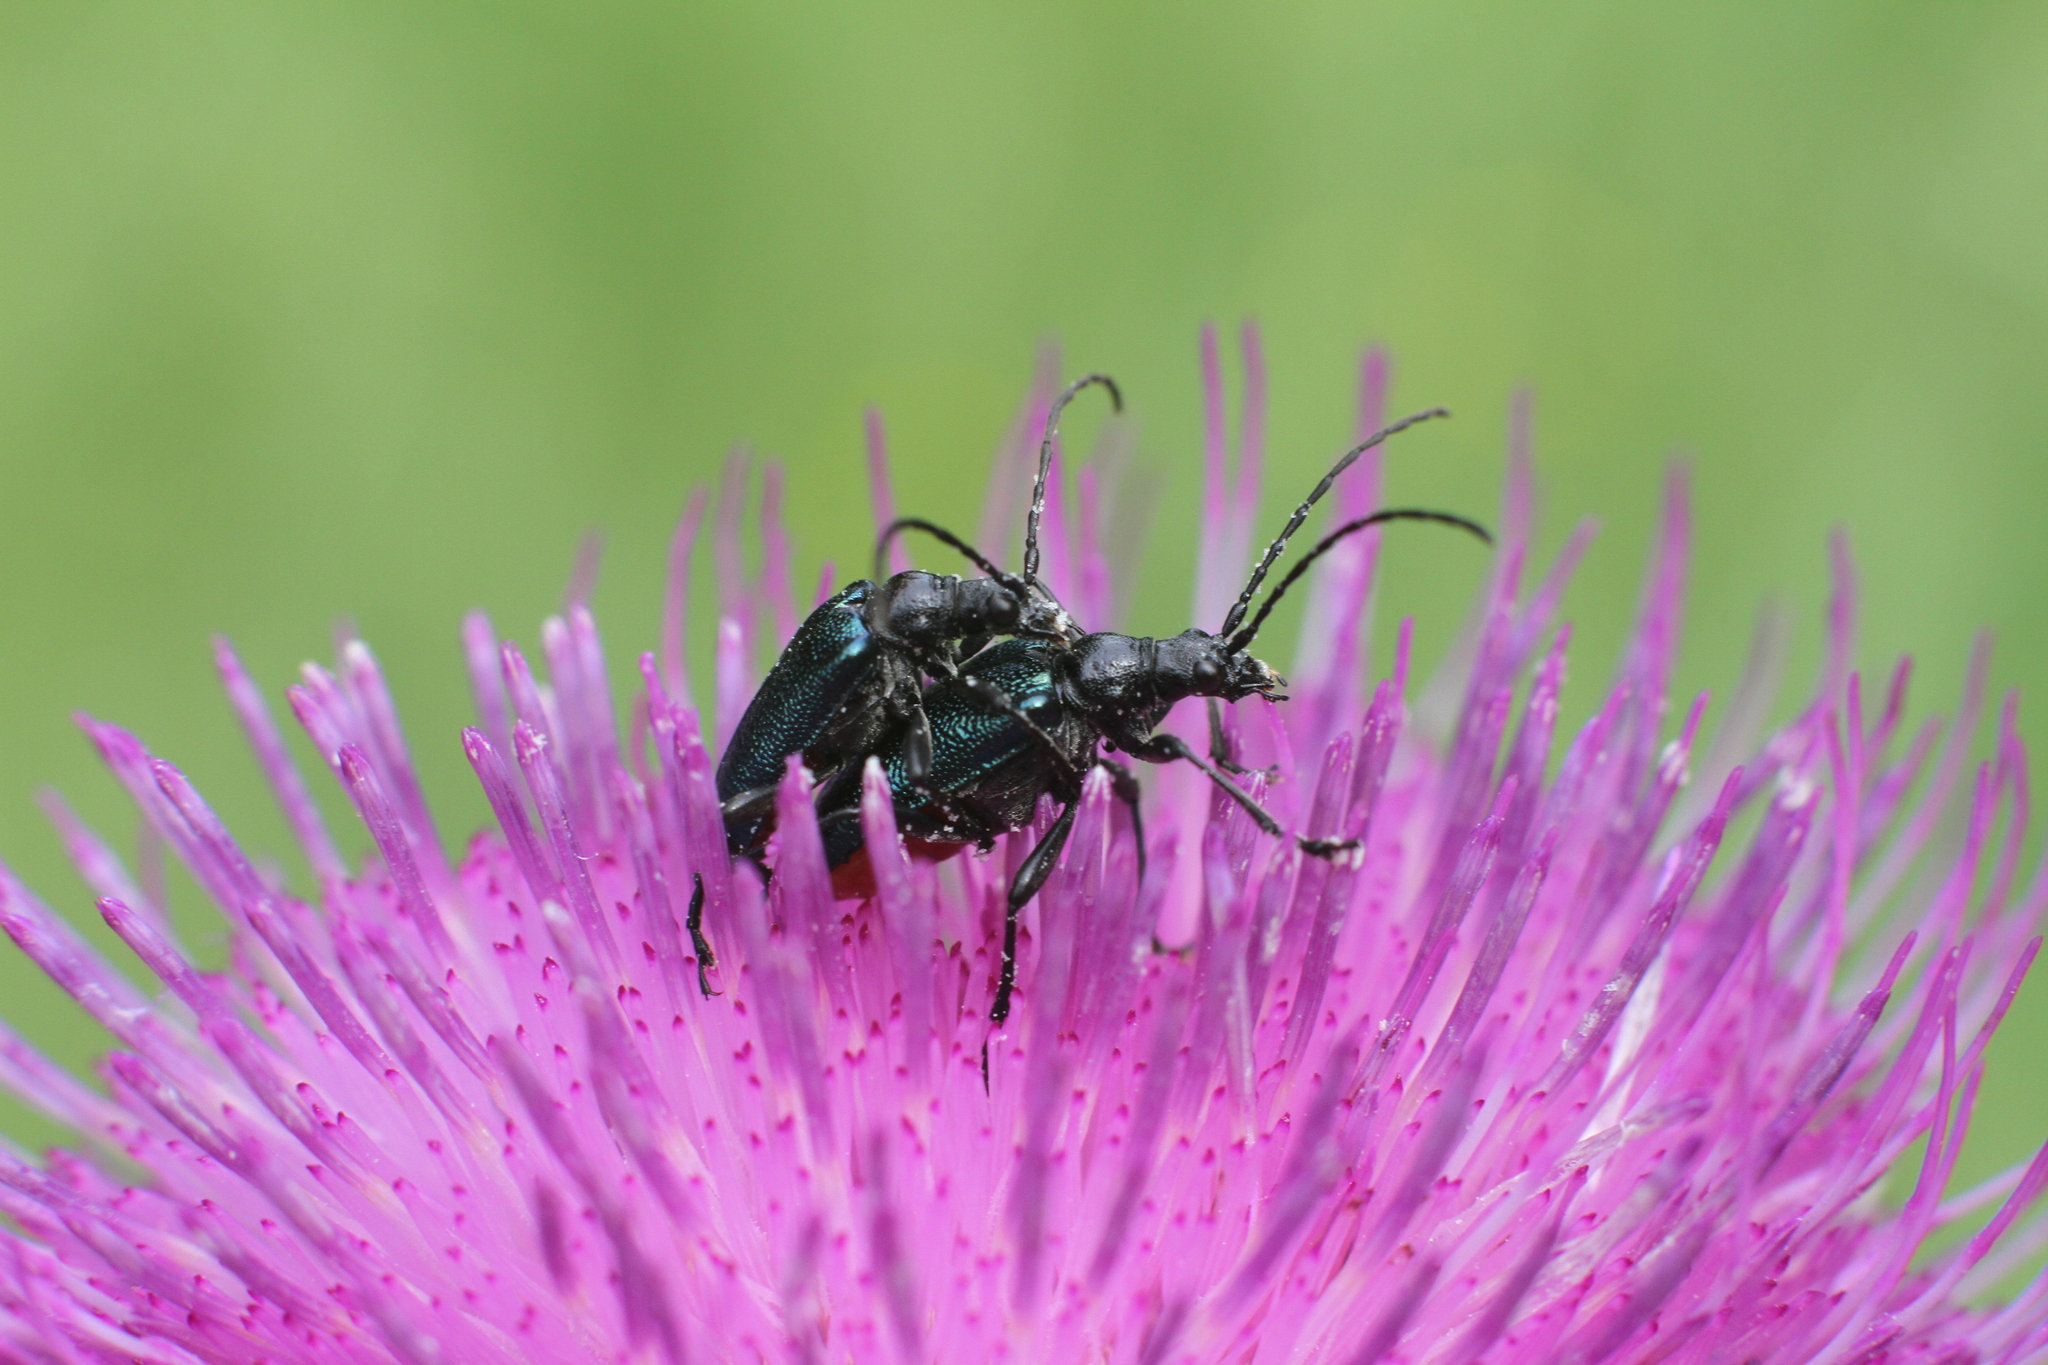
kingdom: Animalia
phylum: Arthropoda
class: Insecta
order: Coleoptera
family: Cerambycidae
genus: Gaurotes
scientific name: Gaurotes virginea
